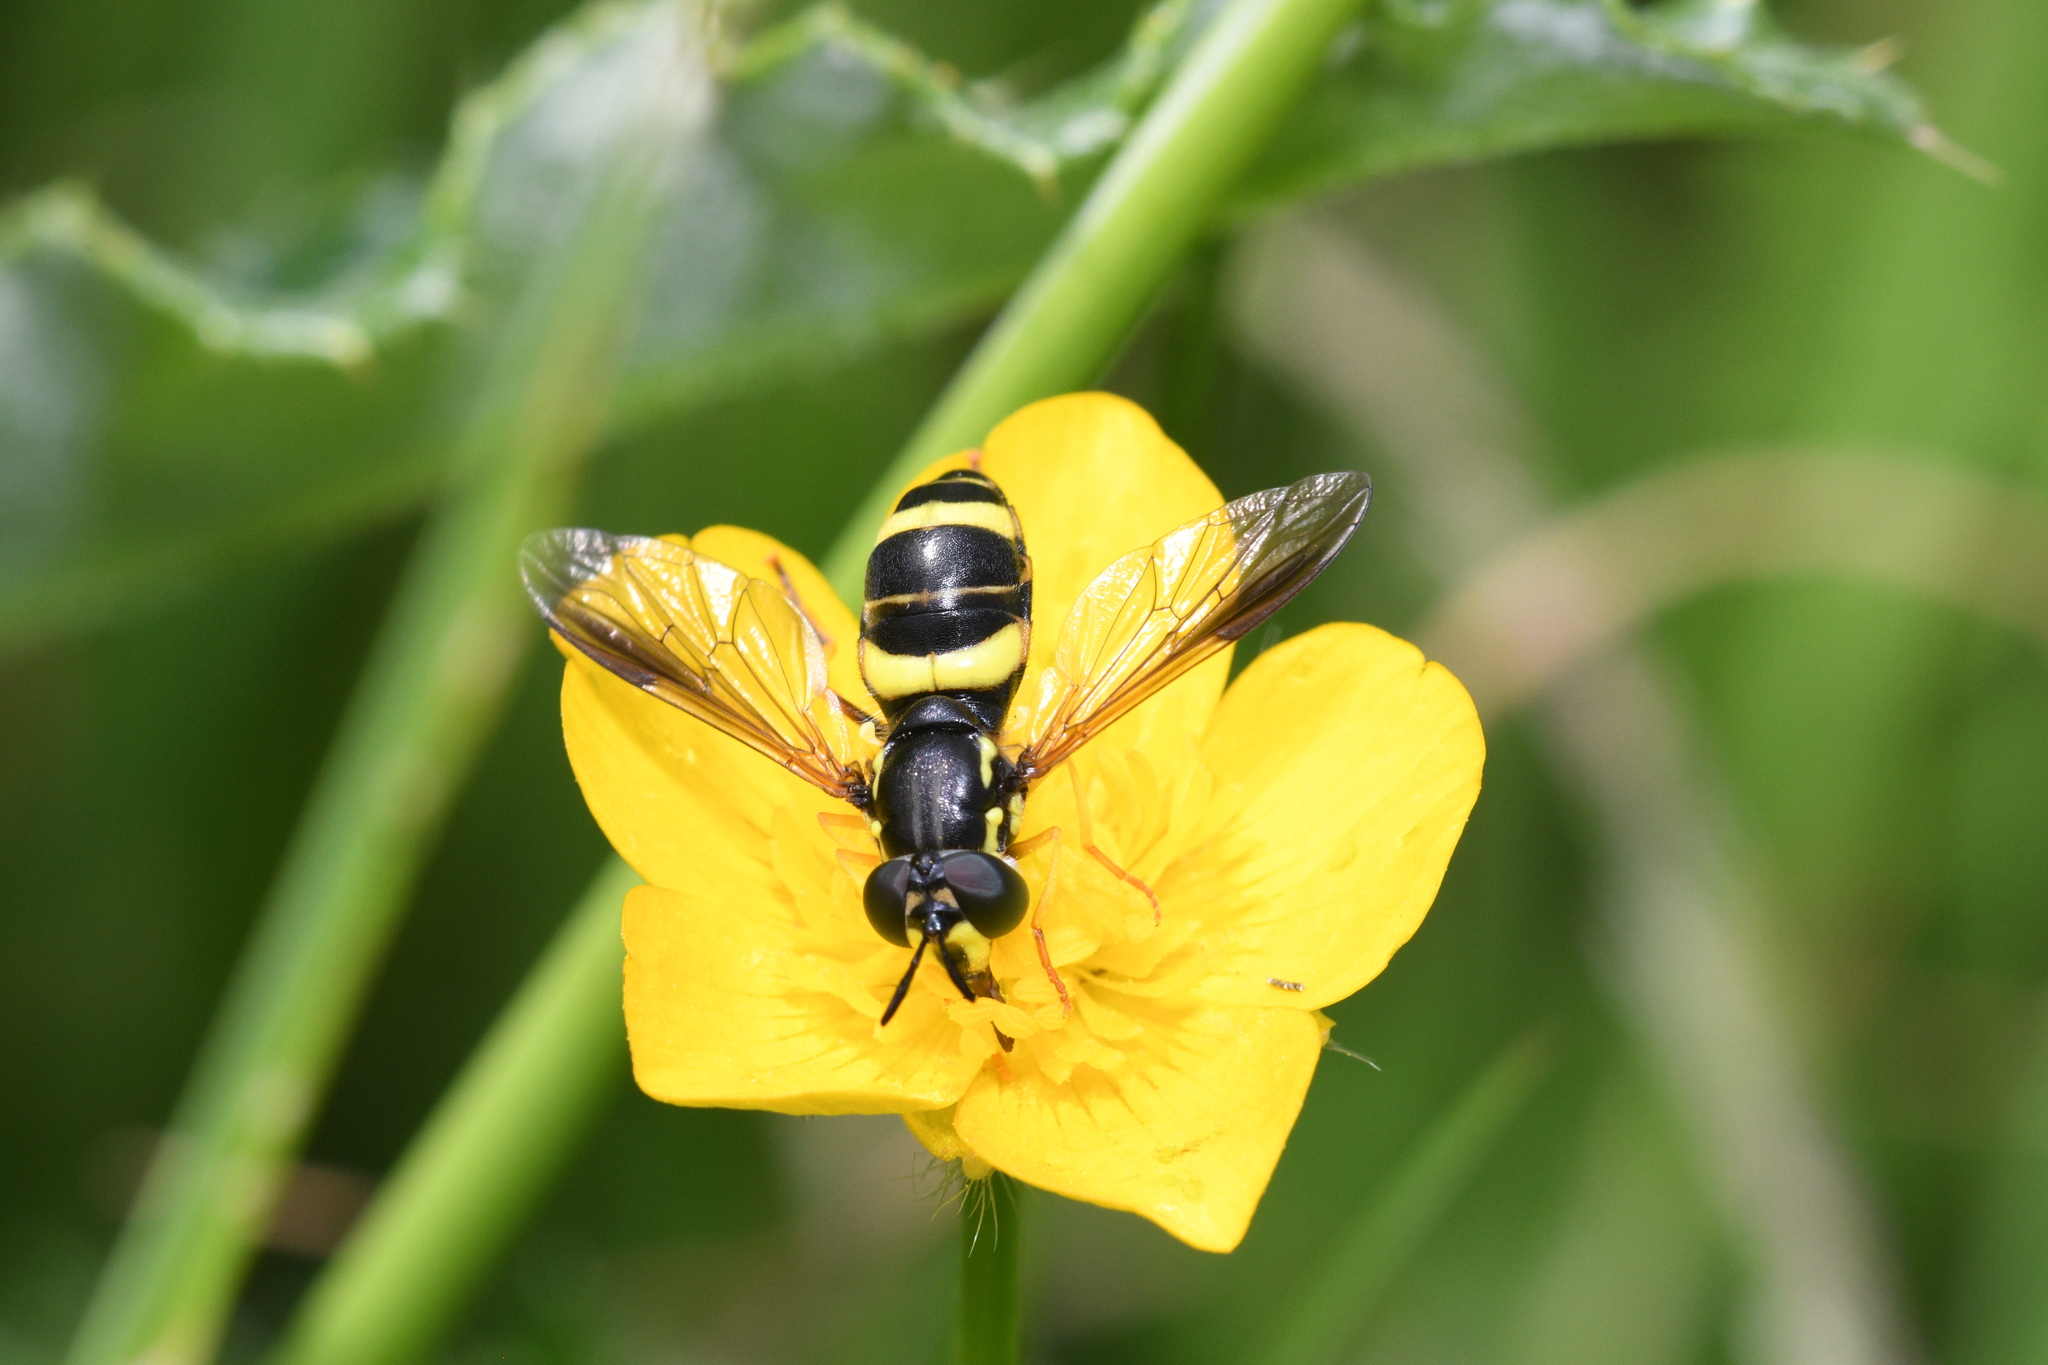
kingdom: Animalia
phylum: Arthropoda
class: Insecta
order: Diptera
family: Syrphidae
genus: Chrysotoxum
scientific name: Chrysotoxum bicincta
